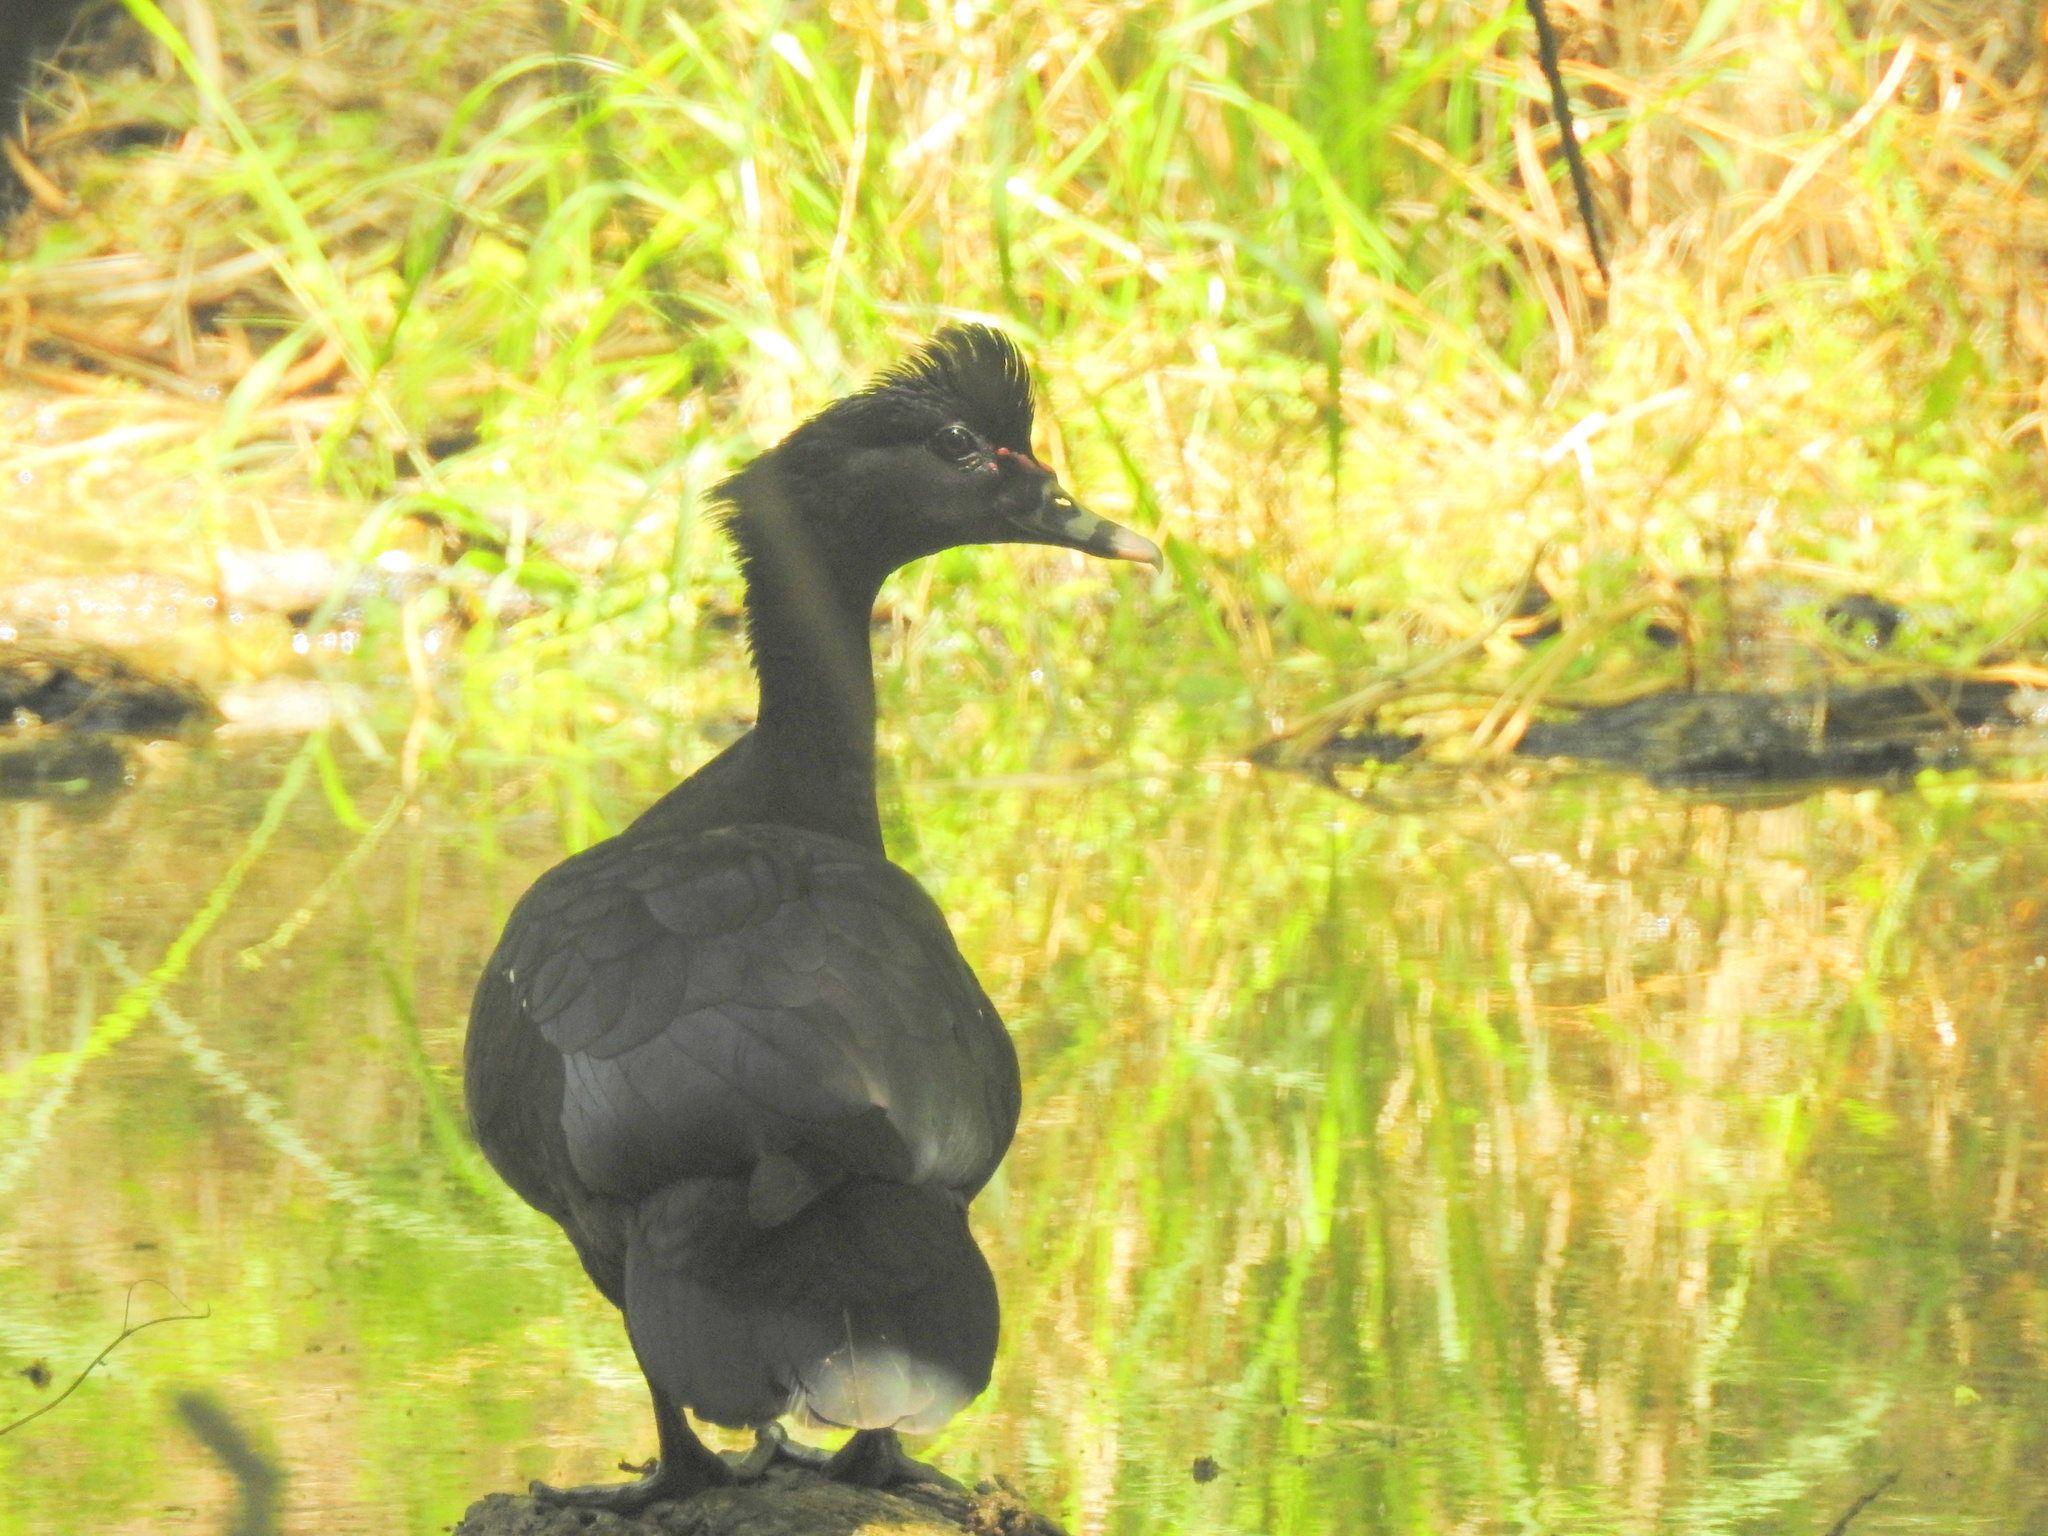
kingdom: Animalia
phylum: Chordata
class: Aves
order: Anseriformes
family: Anatidae
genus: Cairina
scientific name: Cairina moschata
